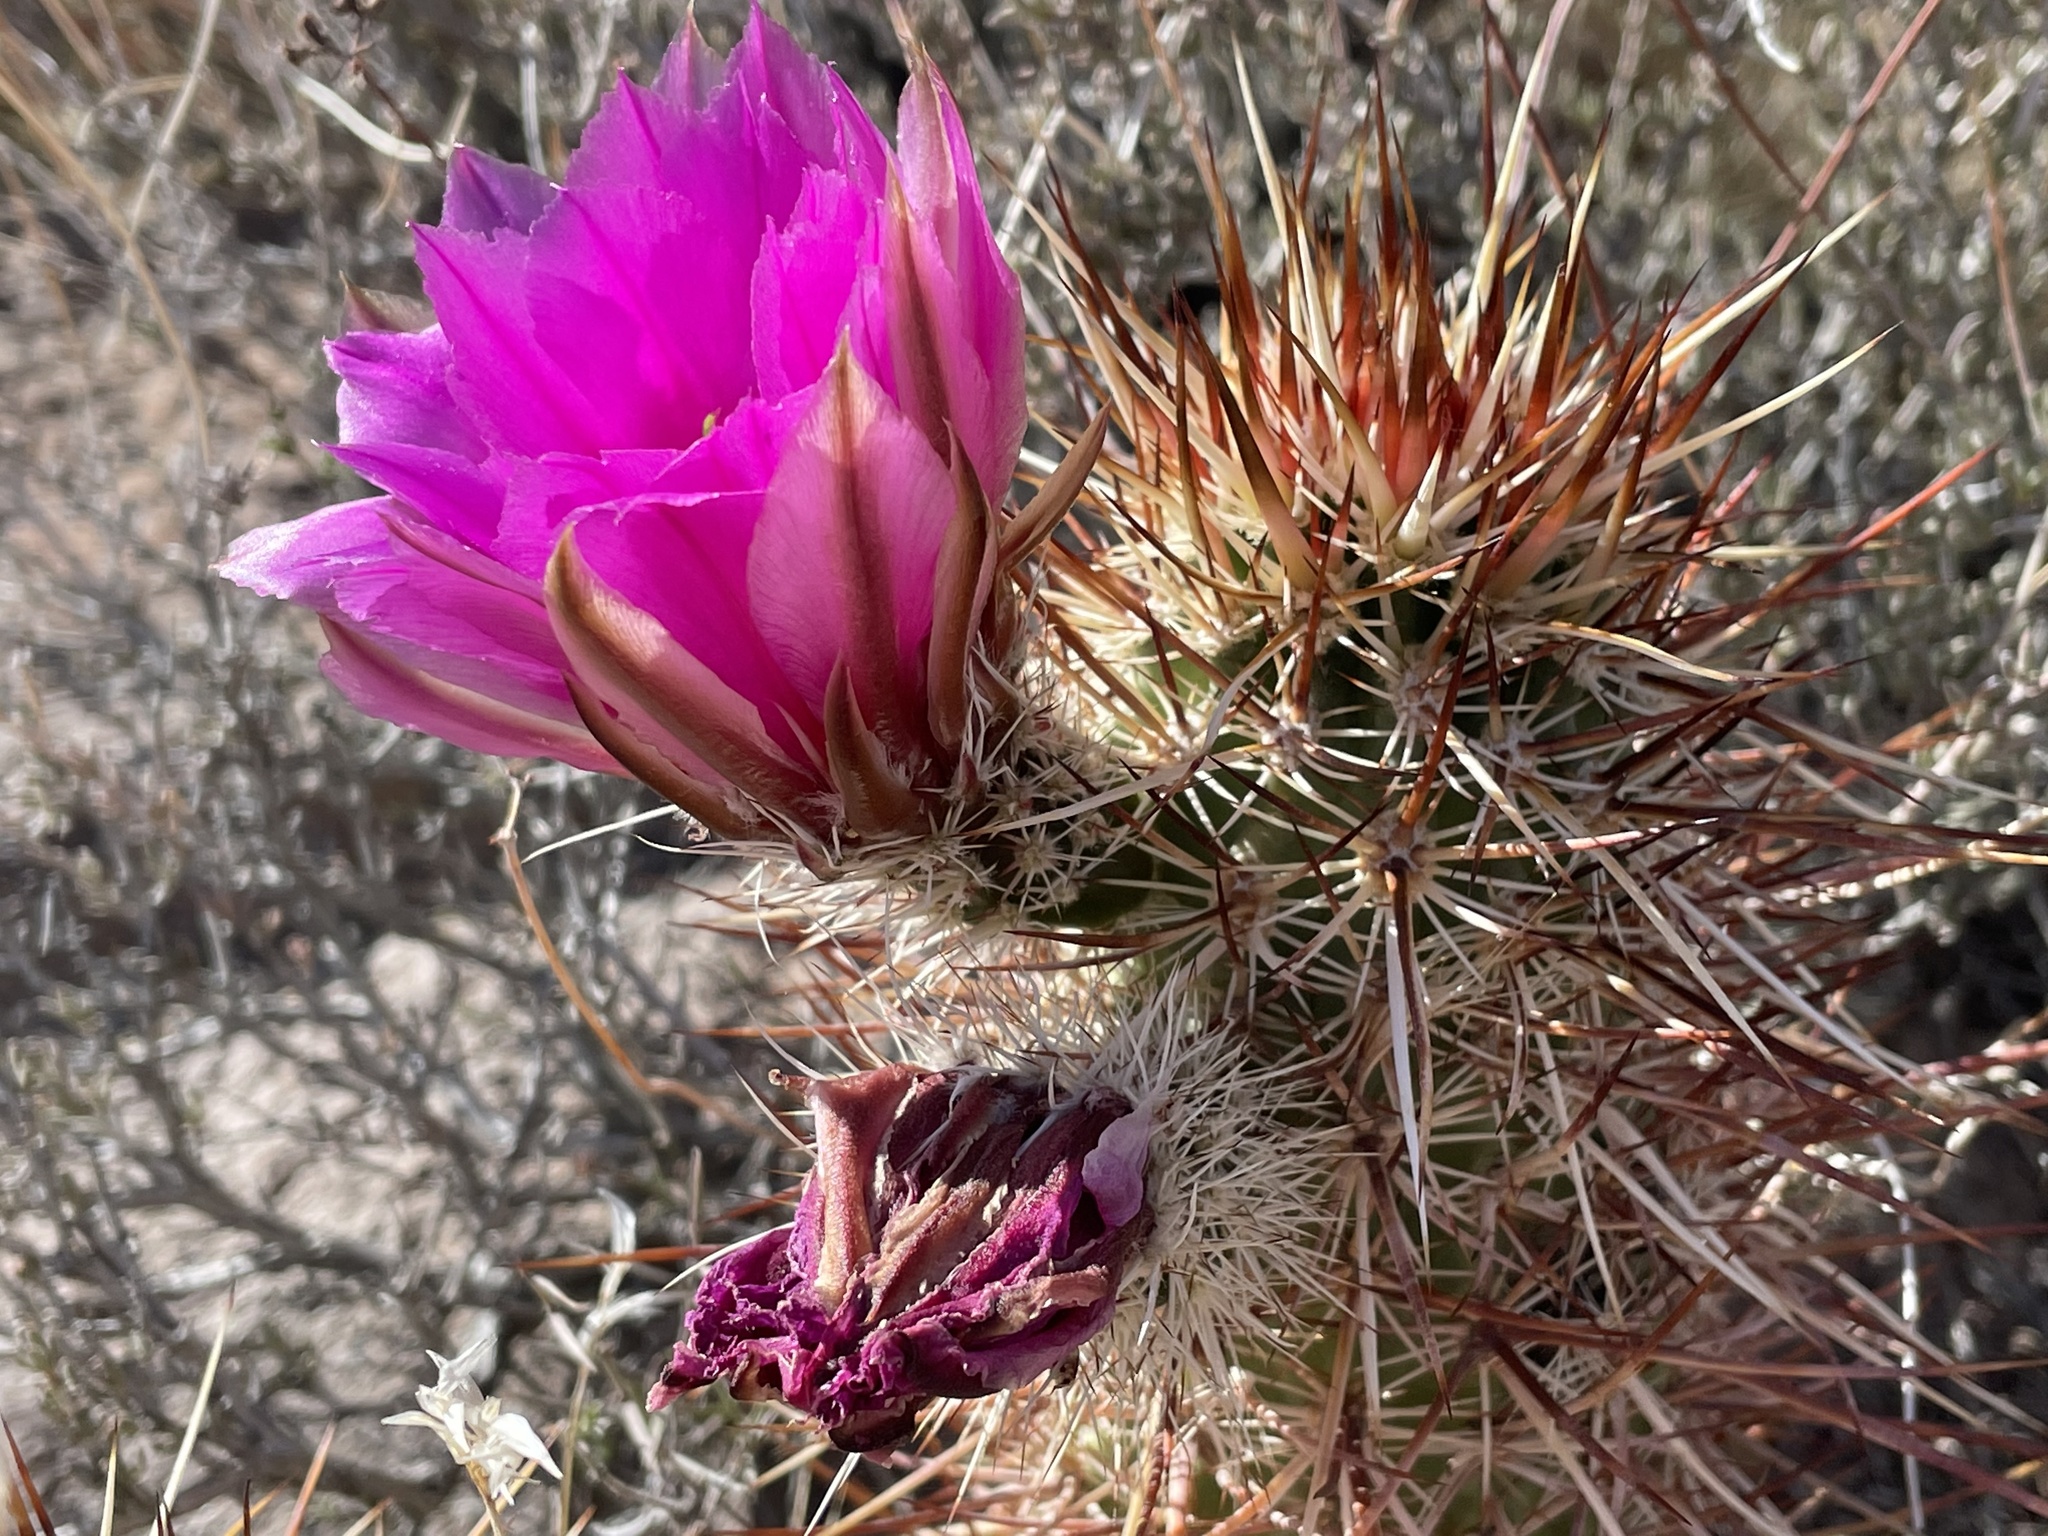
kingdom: Plantae
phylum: Tracheophyta
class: Magnoliopsida
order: Caryophyllales
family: Cactaceae
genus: Echinocereus
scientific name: Echinocereus engelmannii
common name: Engelmann's hedgehog cactus
